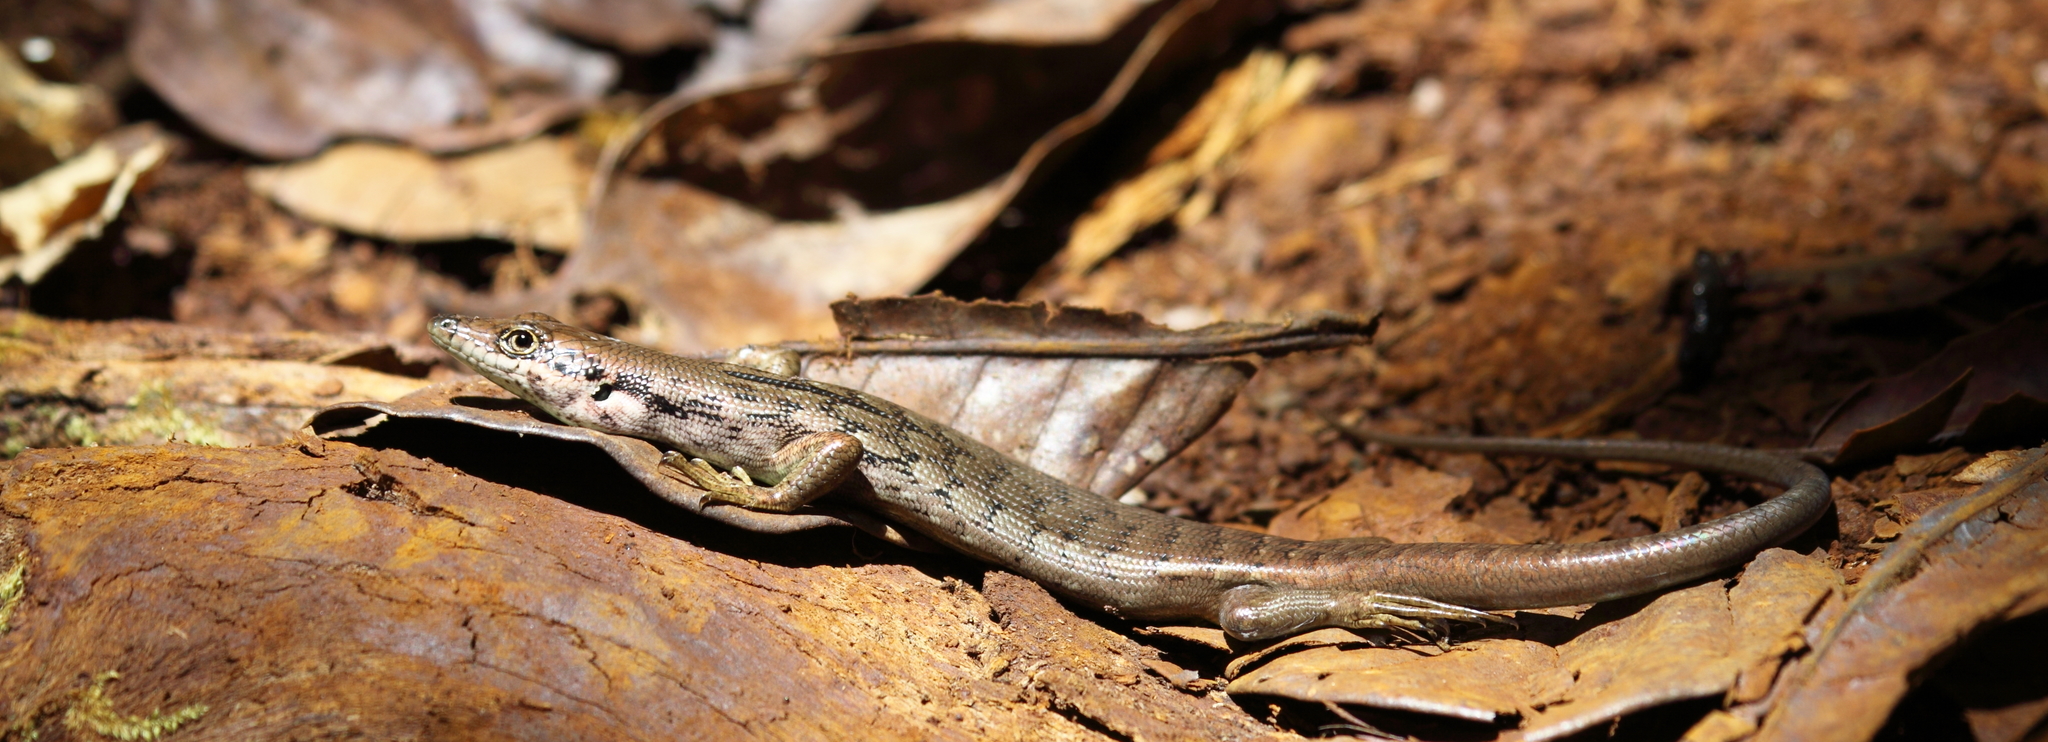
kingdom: Animalia
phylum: Chordata
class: Squamata
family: Scincidae
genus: Epibator
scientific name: Epibator nigrofasciolatus
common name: Green-bellied tree skink
